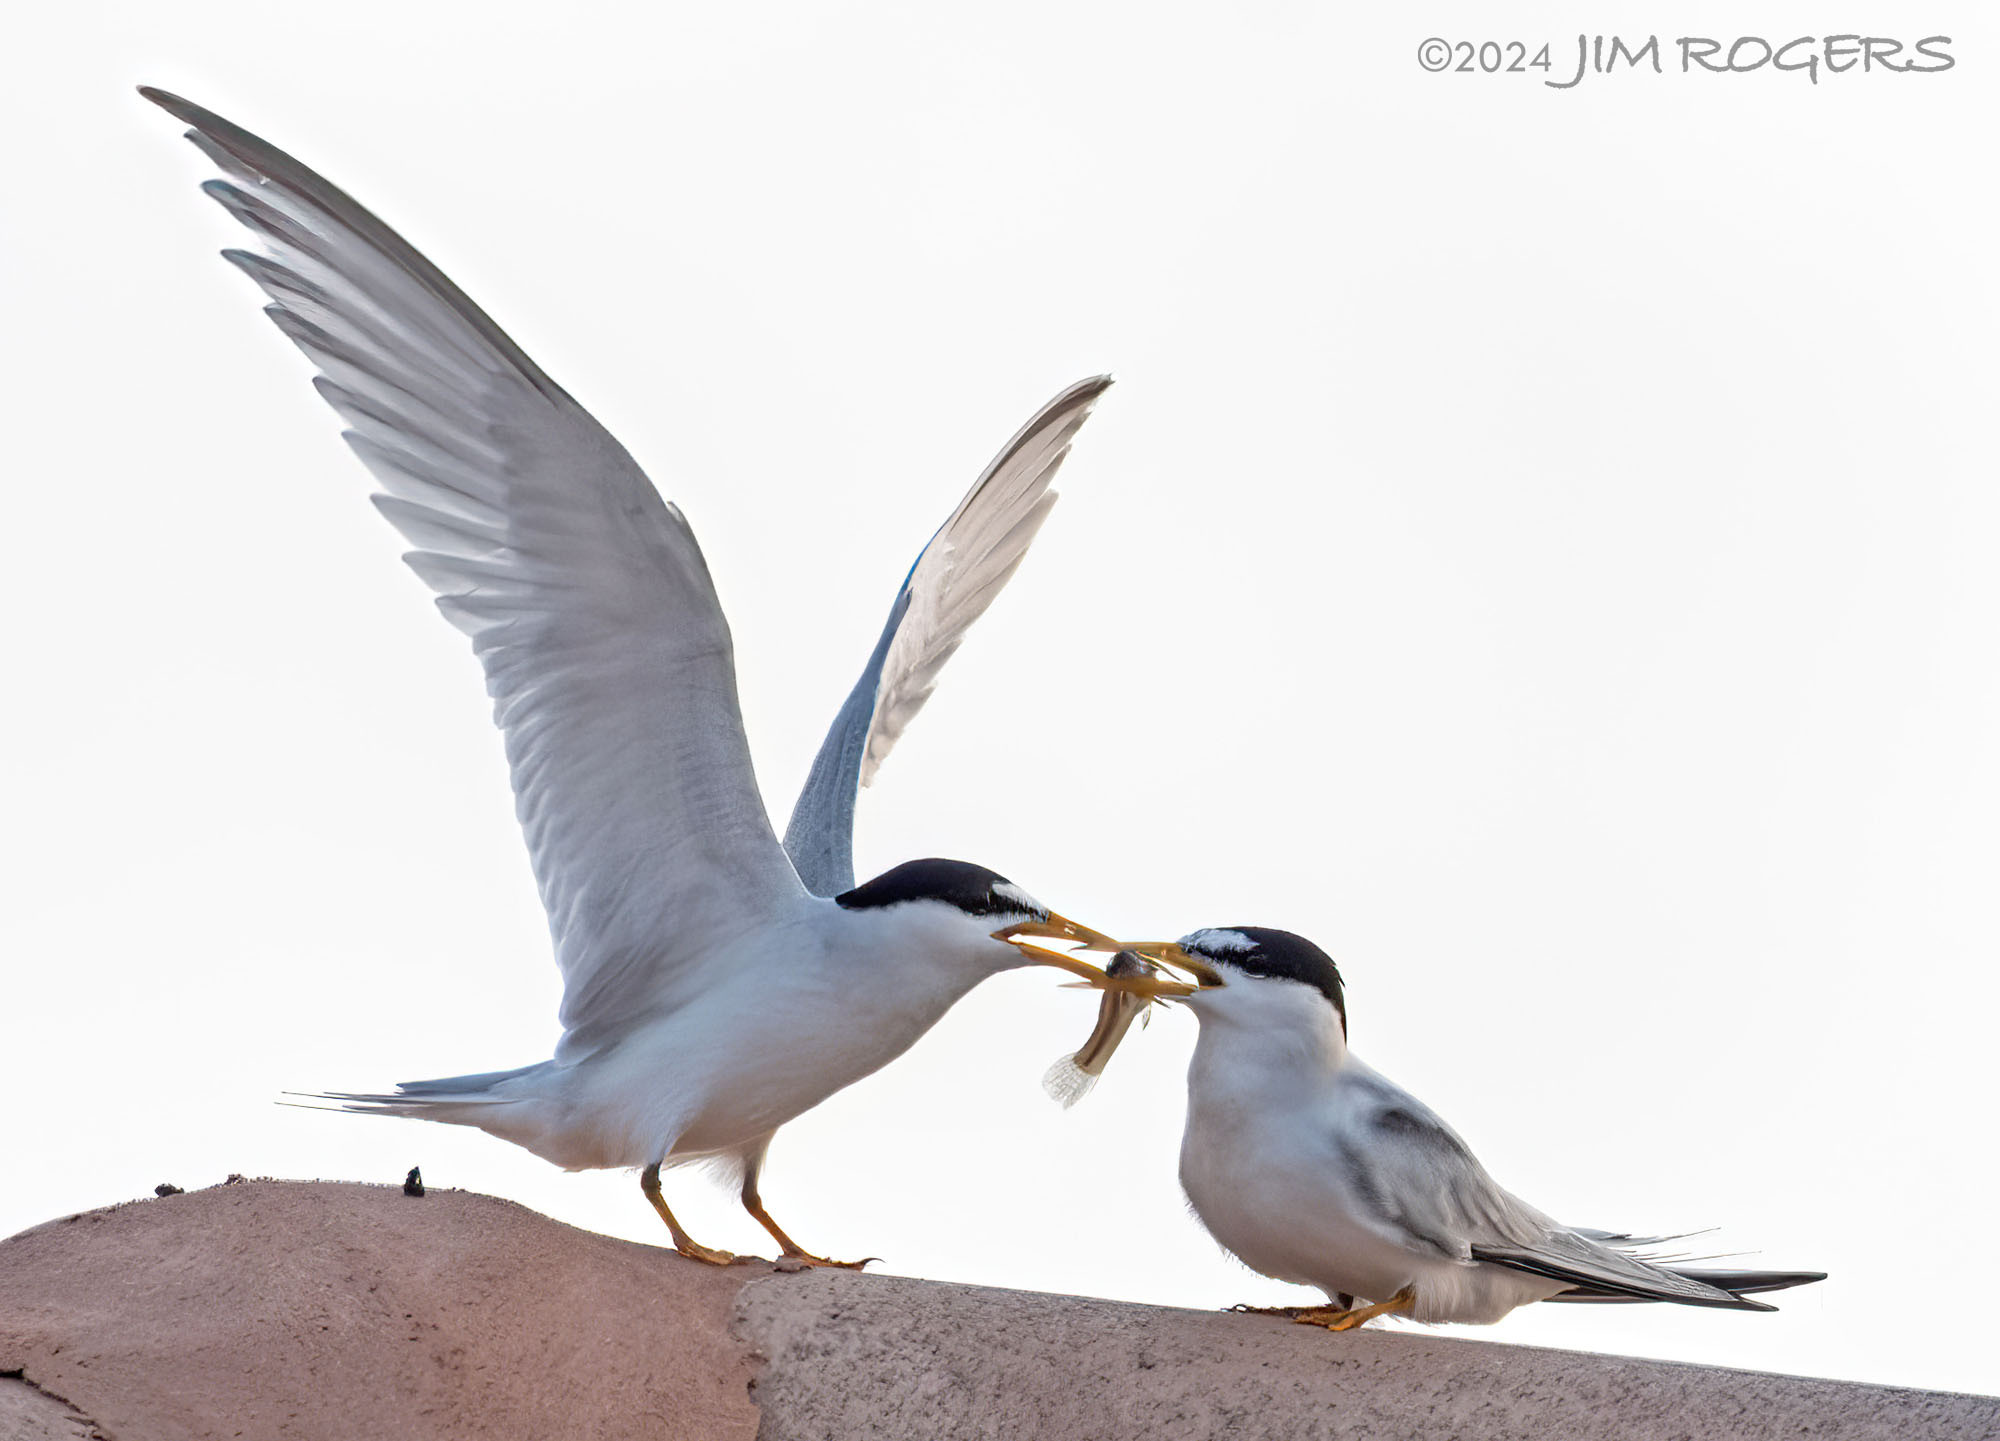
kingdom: Animalia
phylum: Chordata
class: Aves
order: Charadriiformes
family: Laridae
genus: Sternula
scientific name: Sternula antillarum
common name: Least tern
